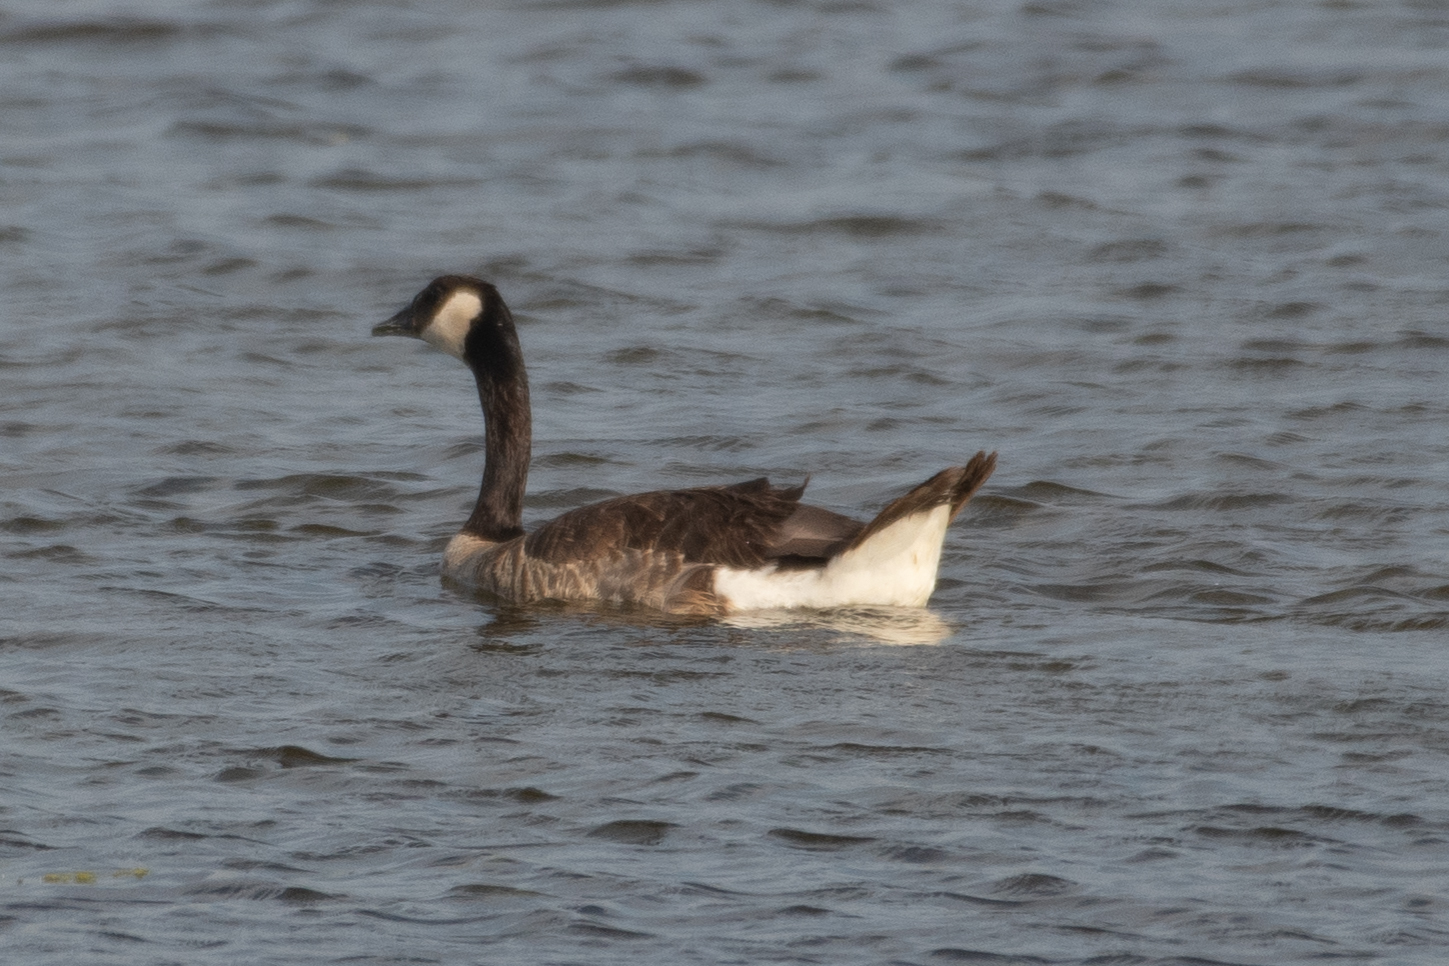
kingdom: Animalia
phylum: Chordata
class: Aves
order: Anseriformes
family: Anatidae
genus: Branta
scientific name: Branta canadensis
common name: Canada goose
